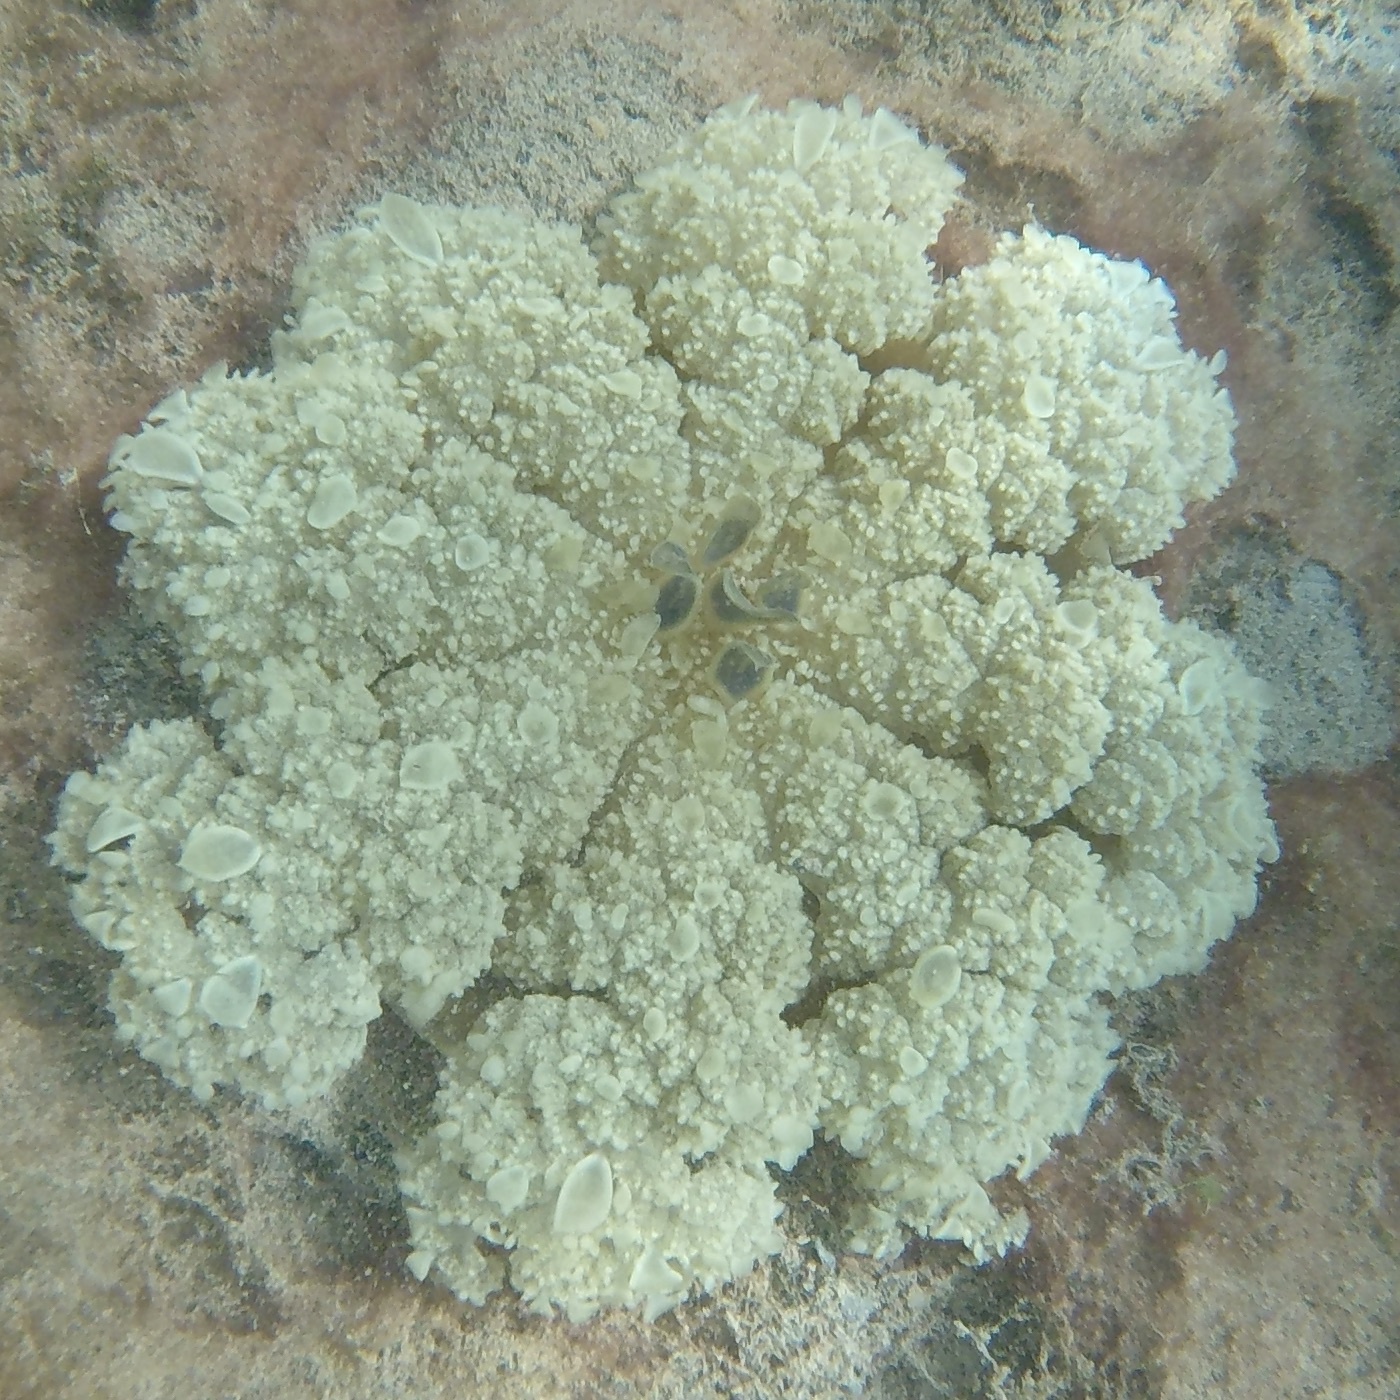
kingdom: Animalia
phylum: Cnidaria
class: Scyphozoa
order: Rhizostomeae
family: Cassiopeidae
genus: Cassiopea
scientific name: Cassiopea andromeda
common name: Upside-down jellyfish
